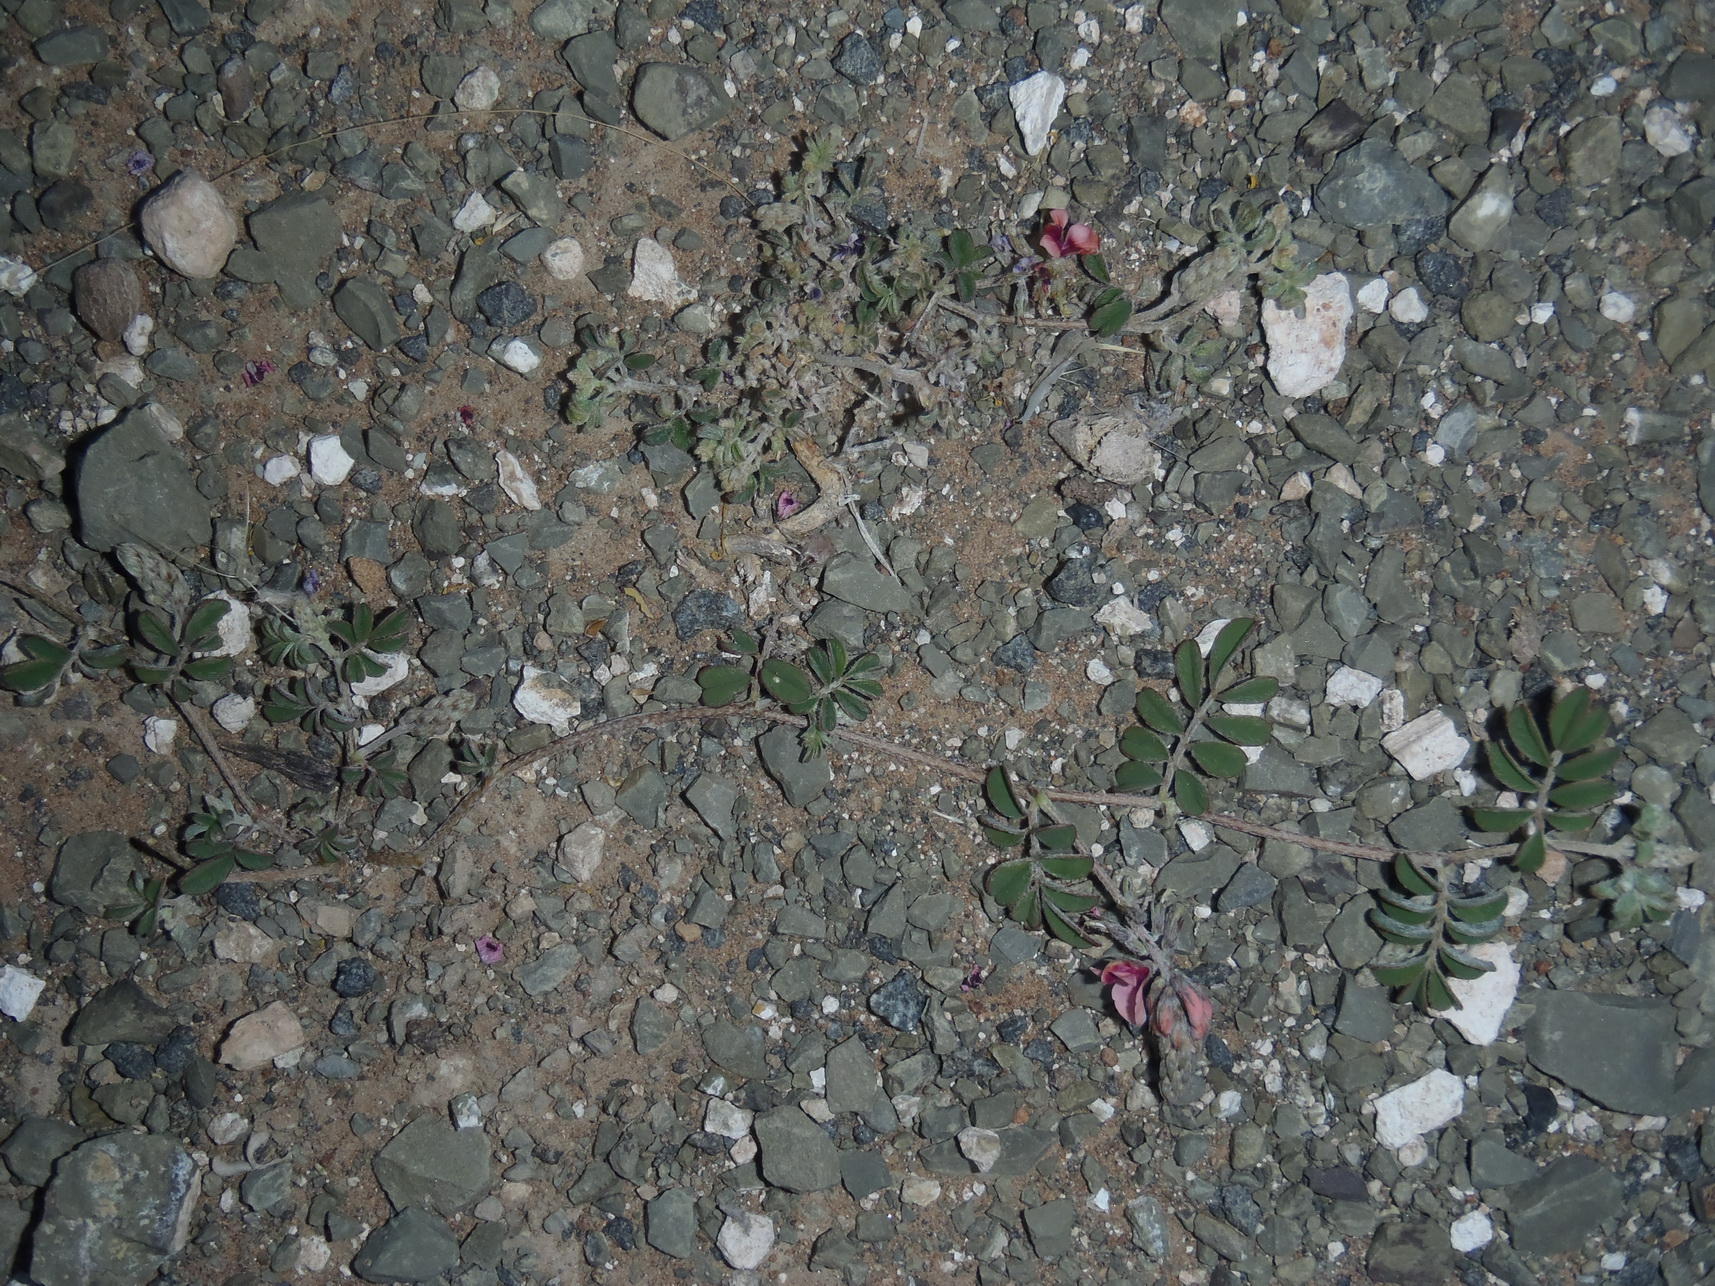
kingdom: Plantae
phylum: Tracheophyta
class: Magnoliopsida
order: Fabales
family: Fabaceae
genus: Indigofera
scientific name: Indigofera alternans
